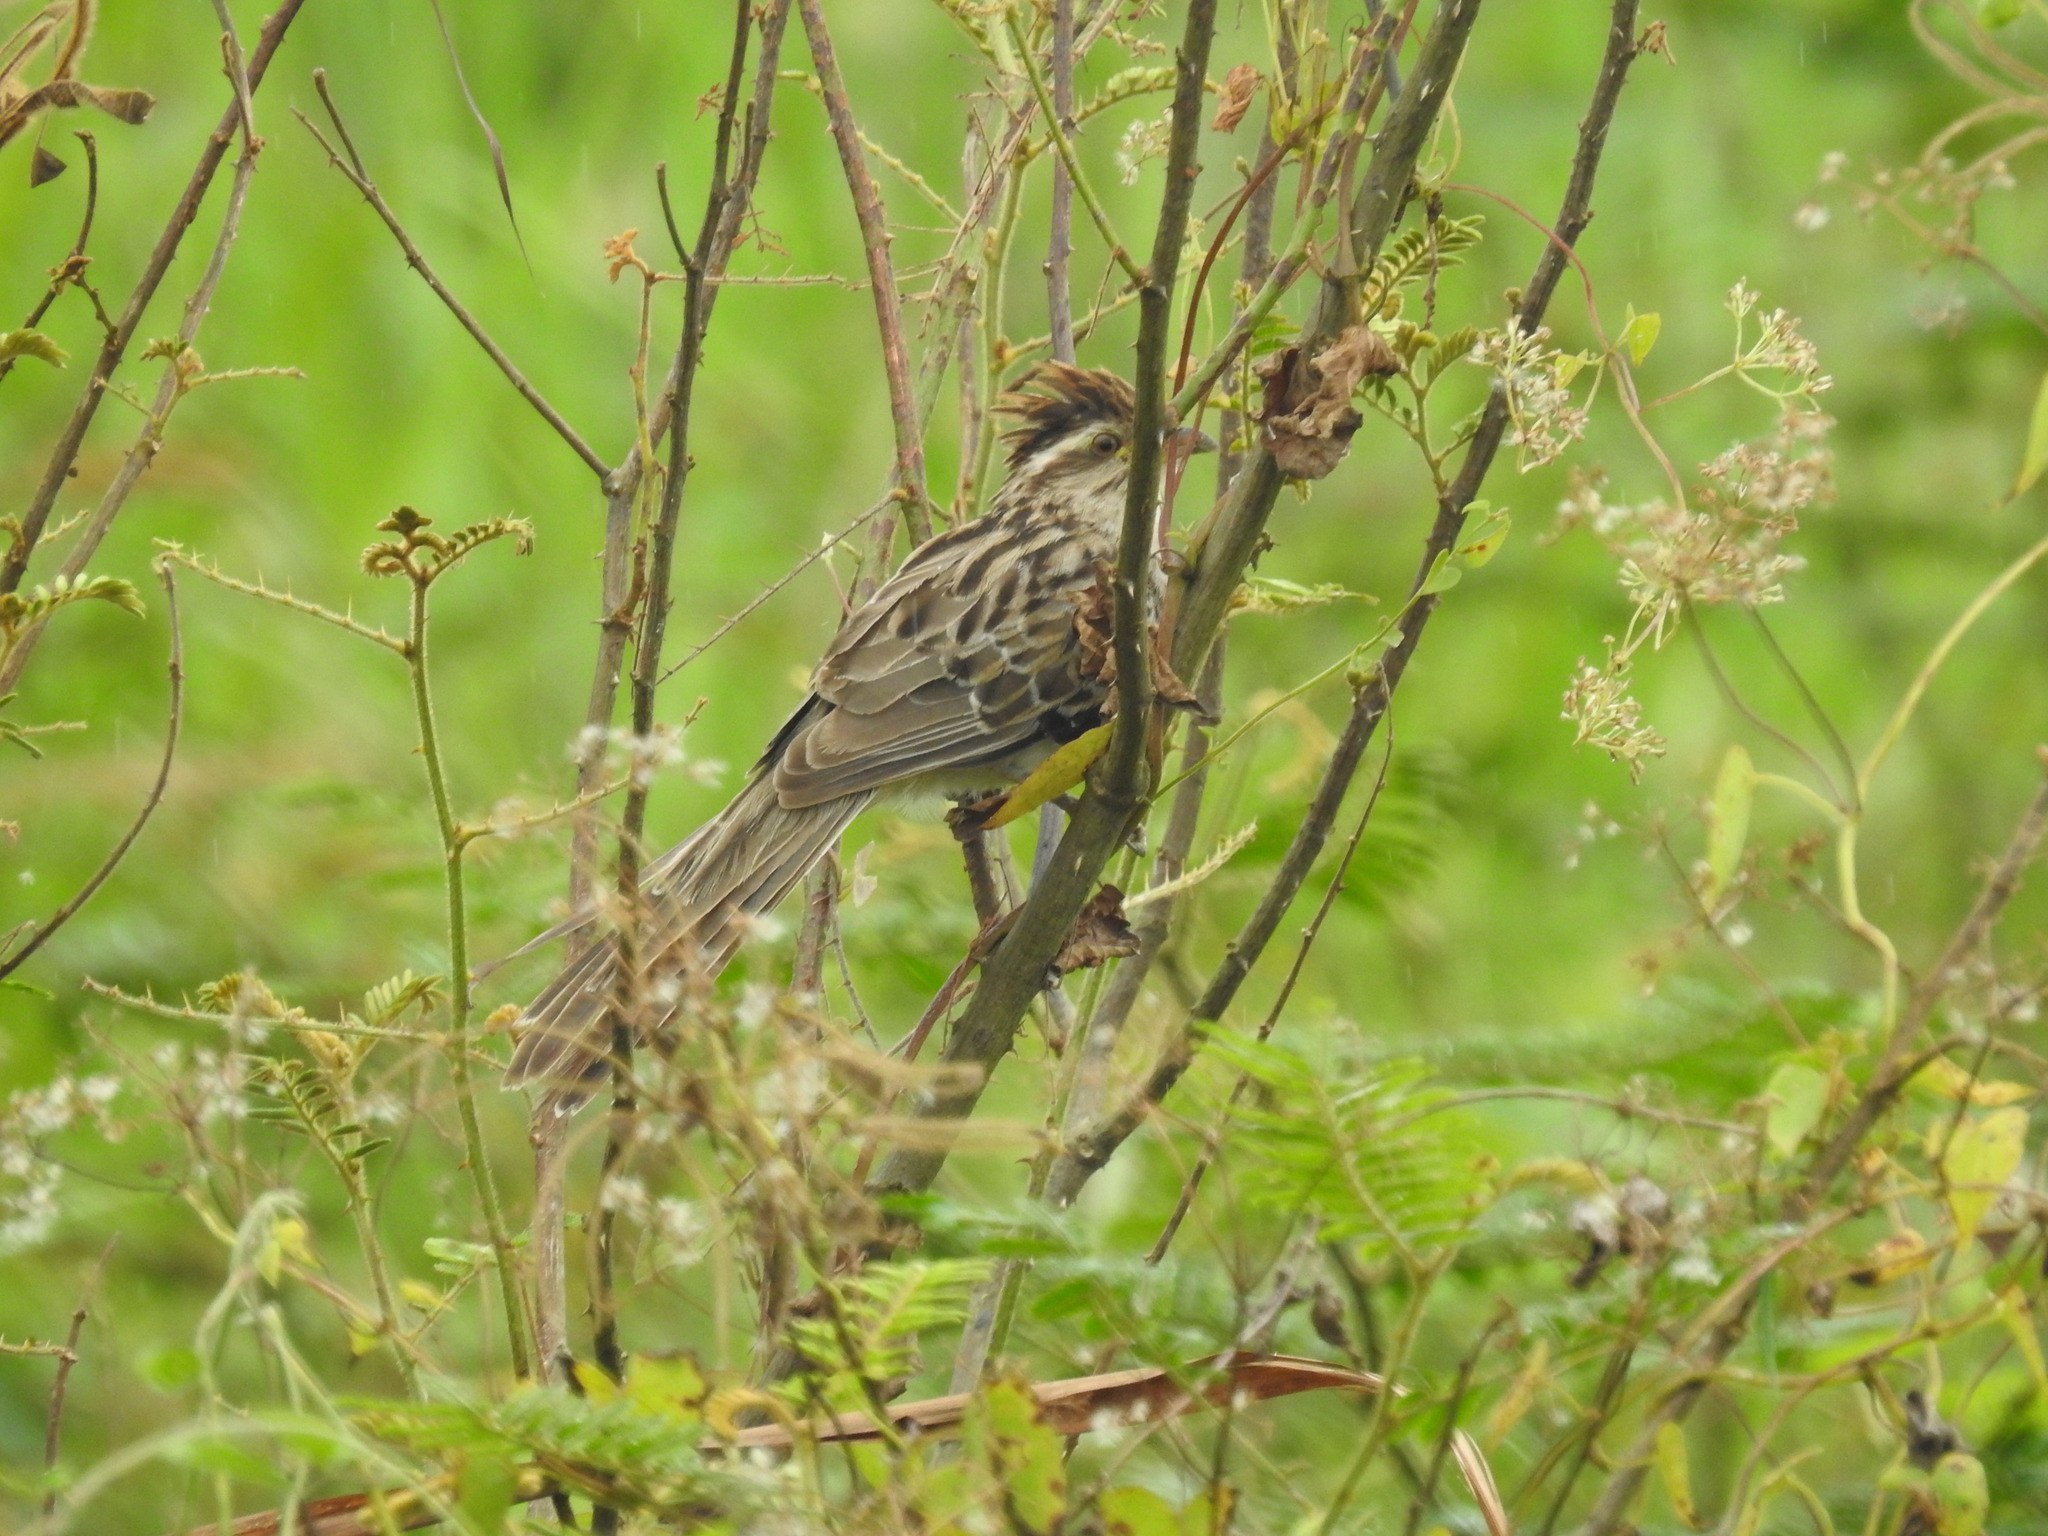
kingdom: Animalia
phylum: Chordata
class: Aves
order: Cuculiformes
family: Cuculidae
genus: Tapera
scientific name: Tapera naevia
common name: Striped cuckoo
